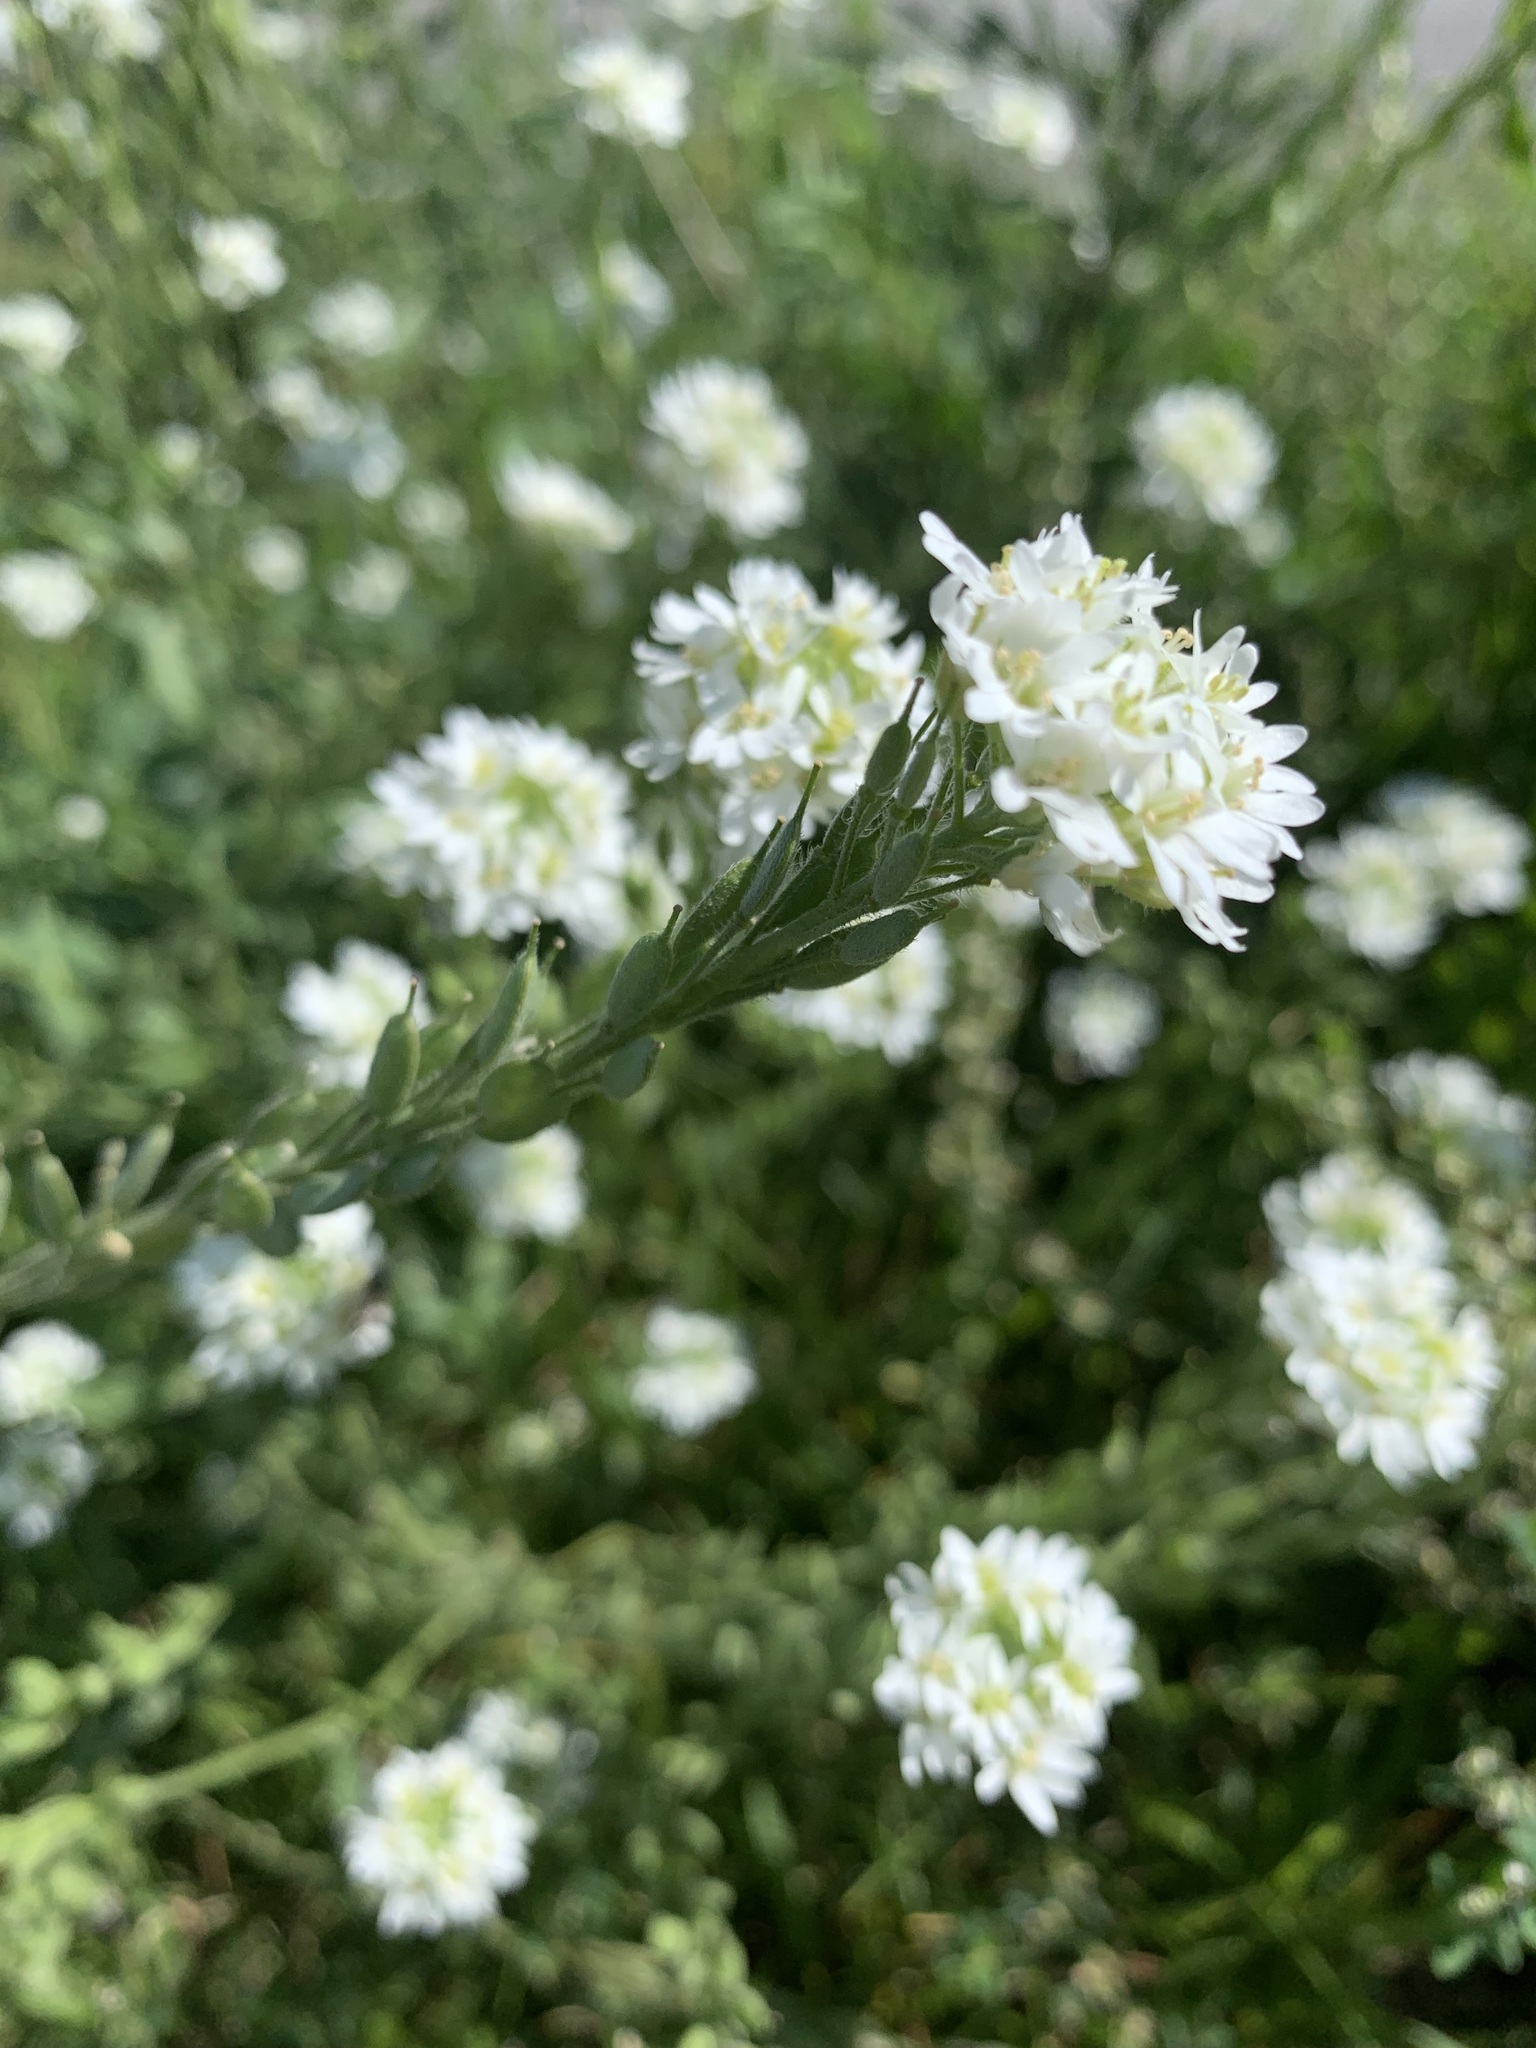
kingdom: Plantae
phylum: Tracheophyta
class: Magnoliopsida
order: Brassicales
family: Brassicaceae
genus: Berteroa
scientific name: Berteroa incana
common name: Hoary alison
